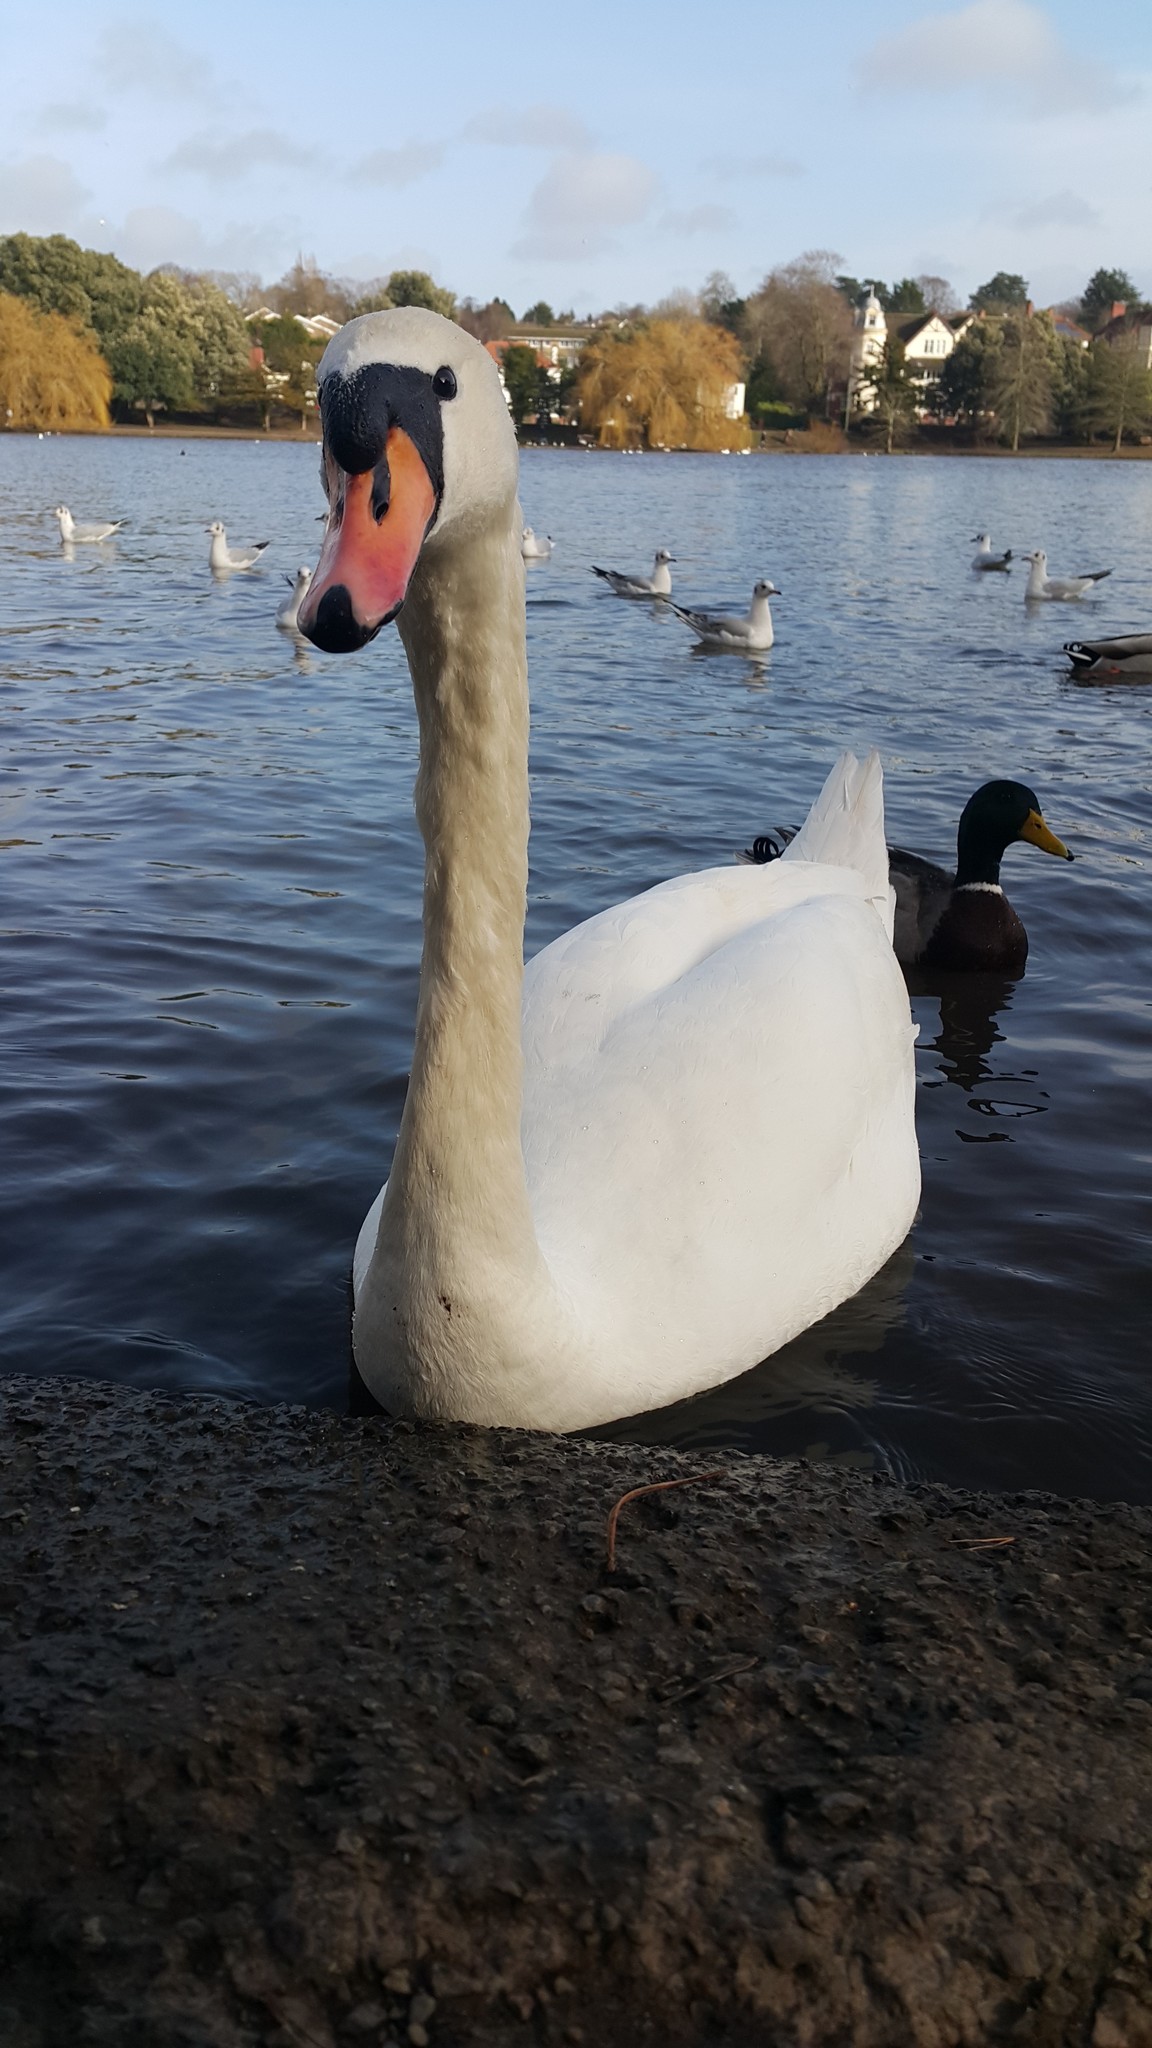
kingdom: Animalia
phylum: Chordata
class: Aves
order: Anseriformes
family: Anatidae
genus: Cygnus
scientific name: Cygnus olor
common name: Mute swan
